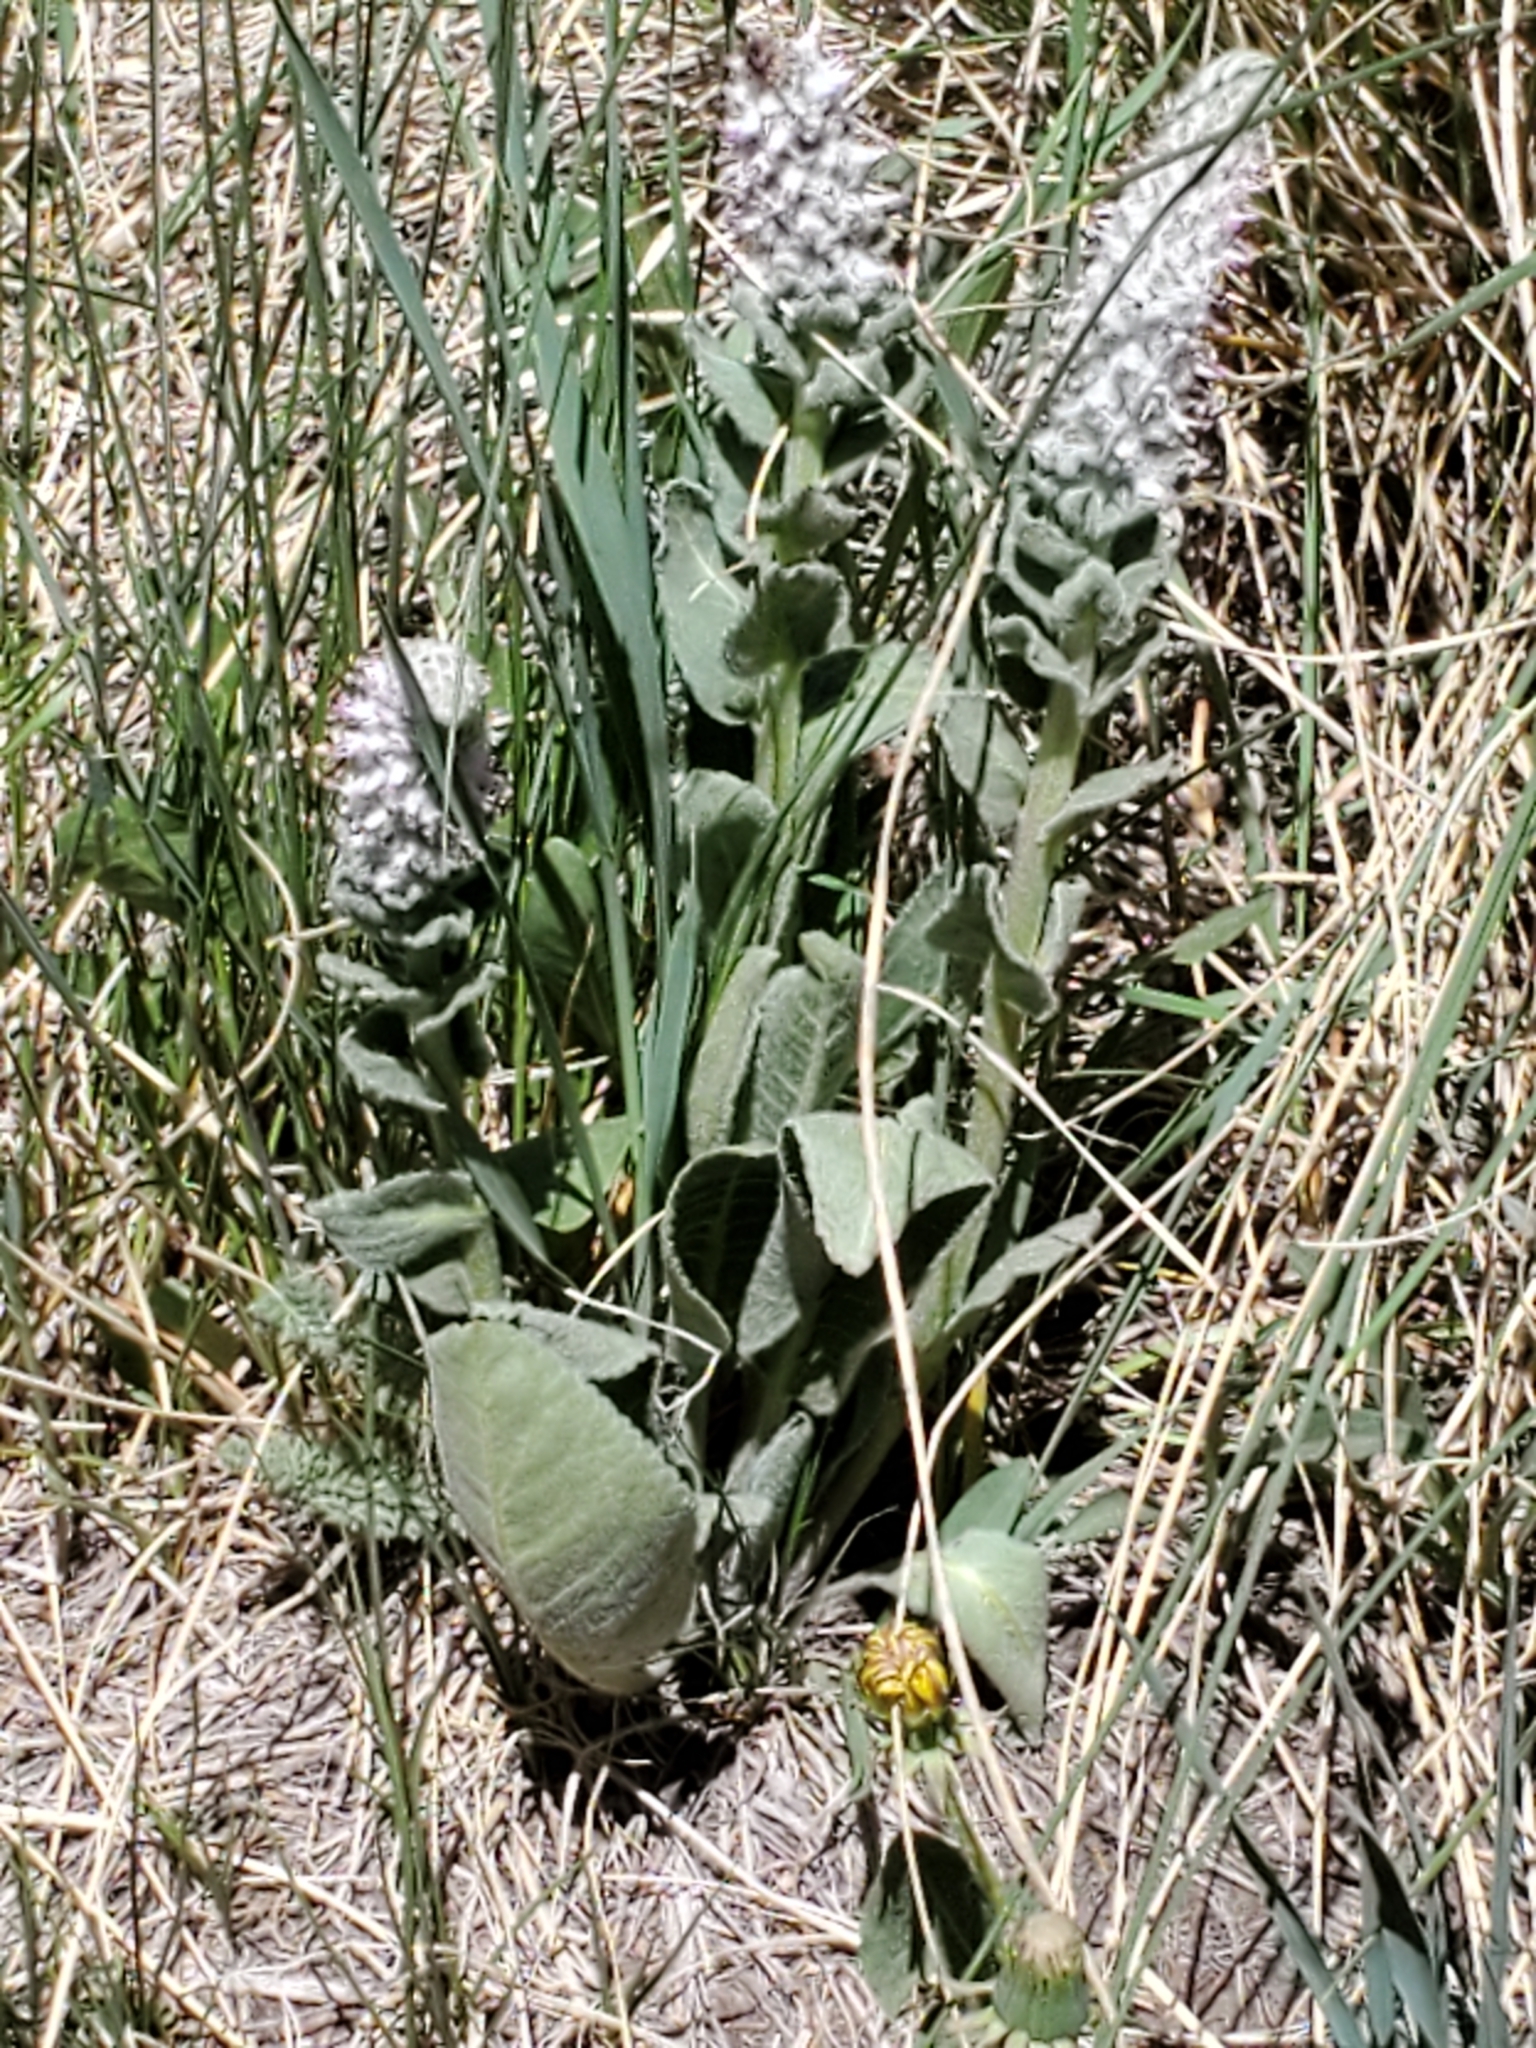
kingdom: Plantae
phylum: Tracheophyta
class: Magnoliopsida
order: Lamiales
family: Plantaginaceae
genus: Veronica
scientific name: Veronica plantaginea
